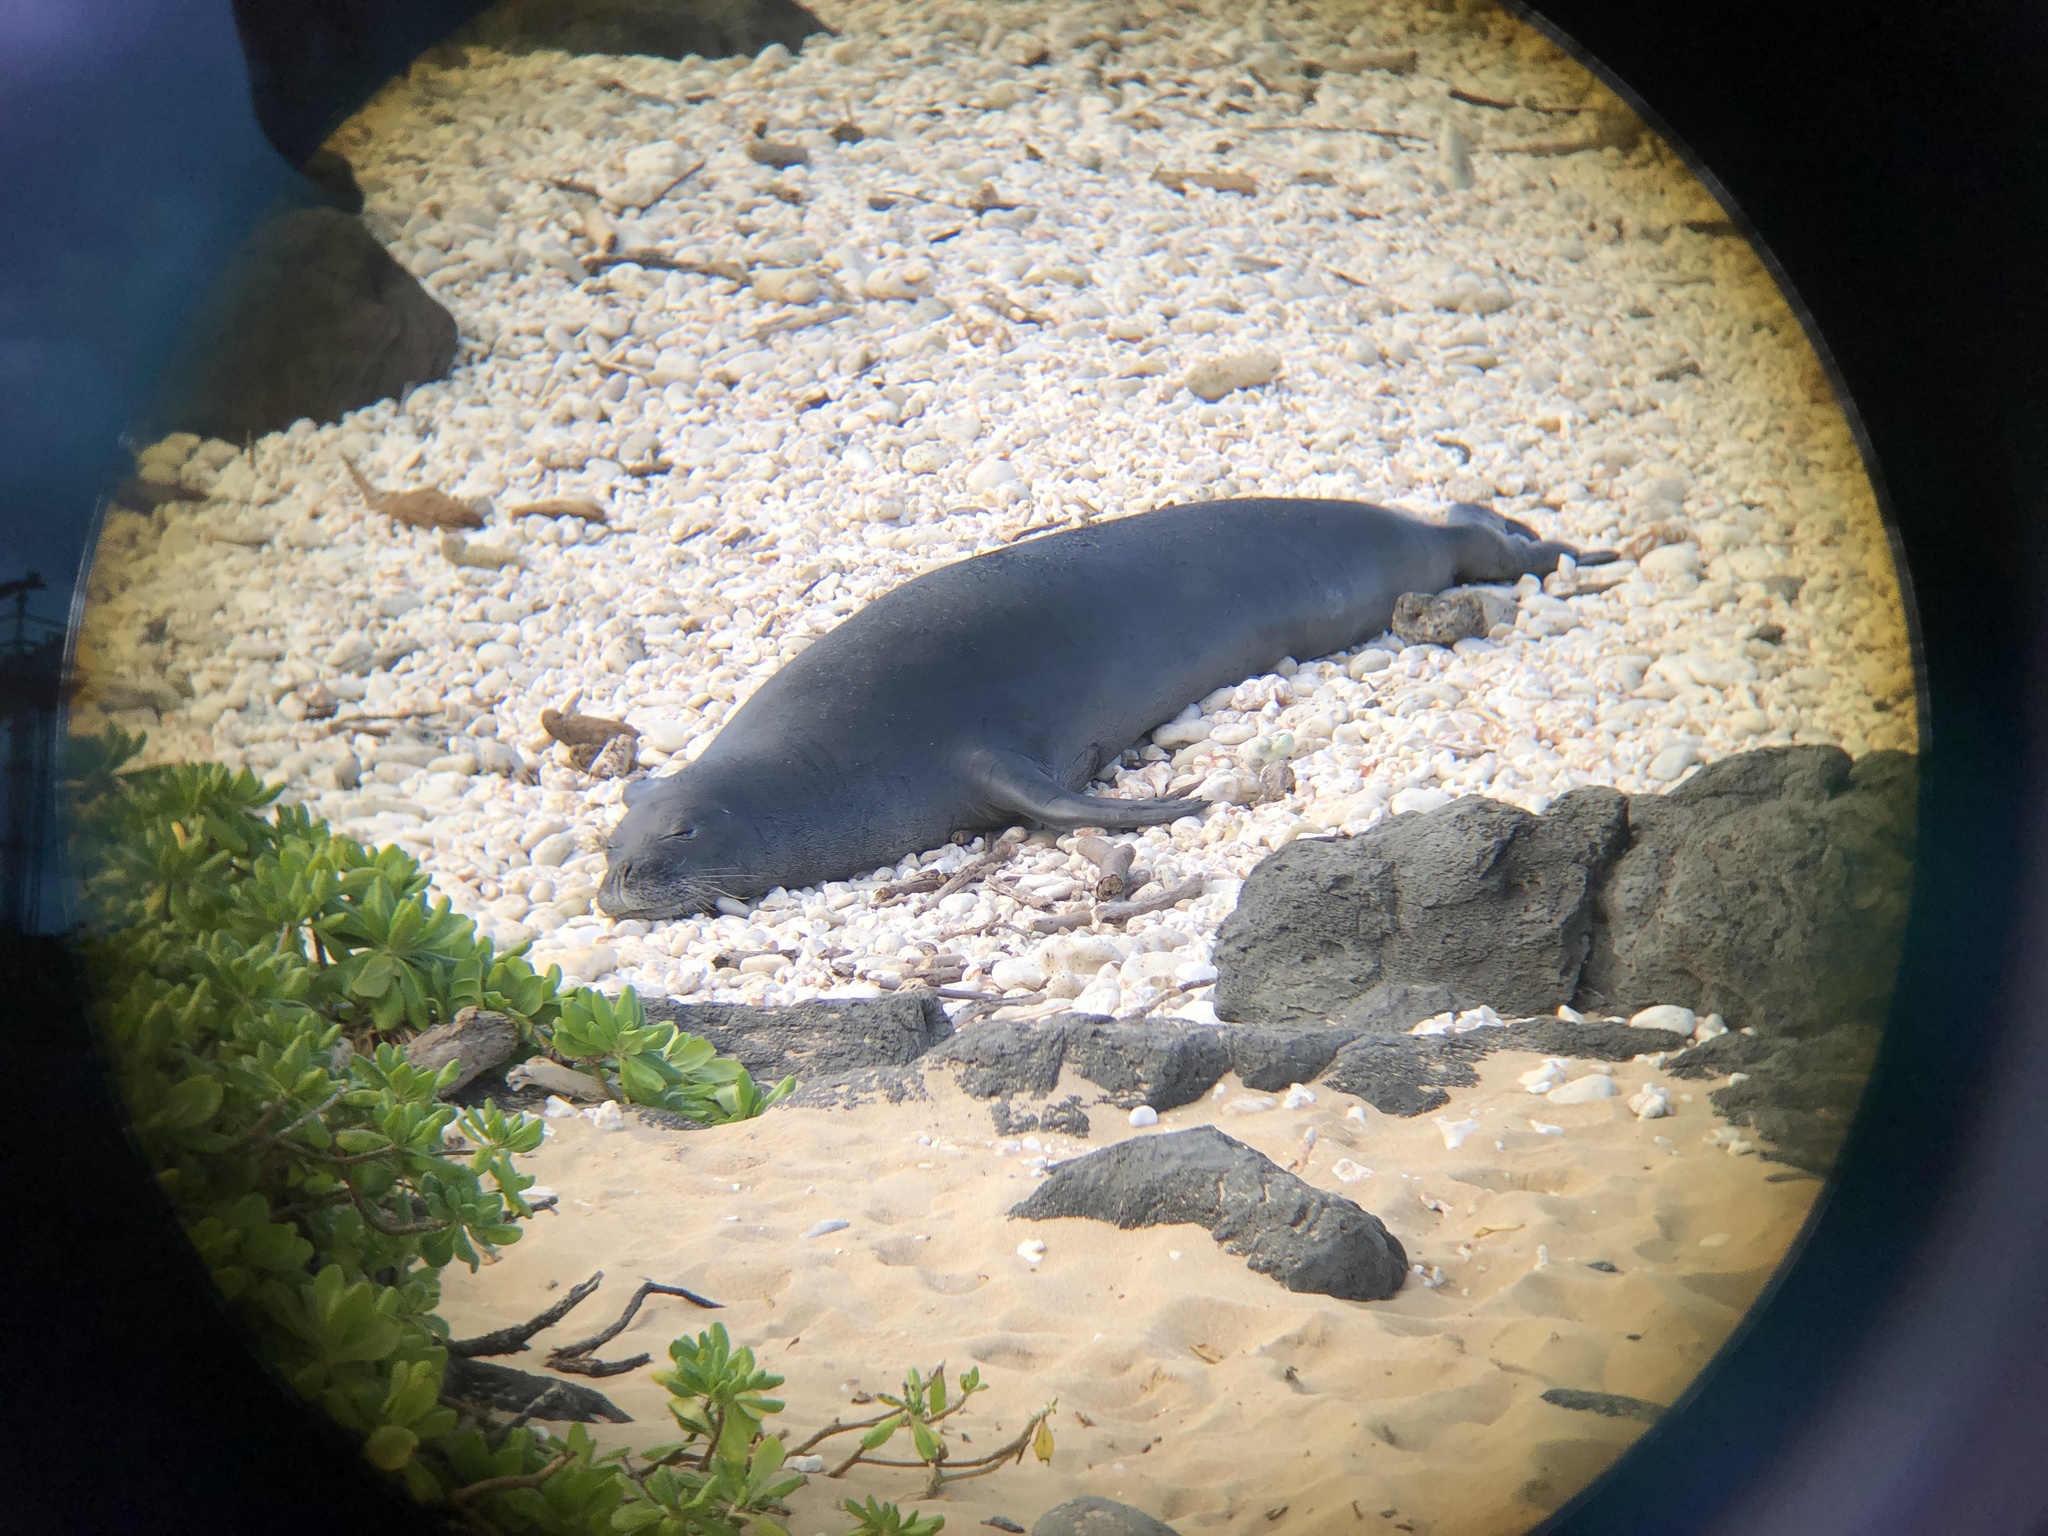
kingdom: Animalia
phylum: Chordata
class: Mammalia
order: Carnivora
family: Phocidae
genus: Neomonachus
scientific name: Neomonachus schauinslandi
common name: Hawaiian monk seal
